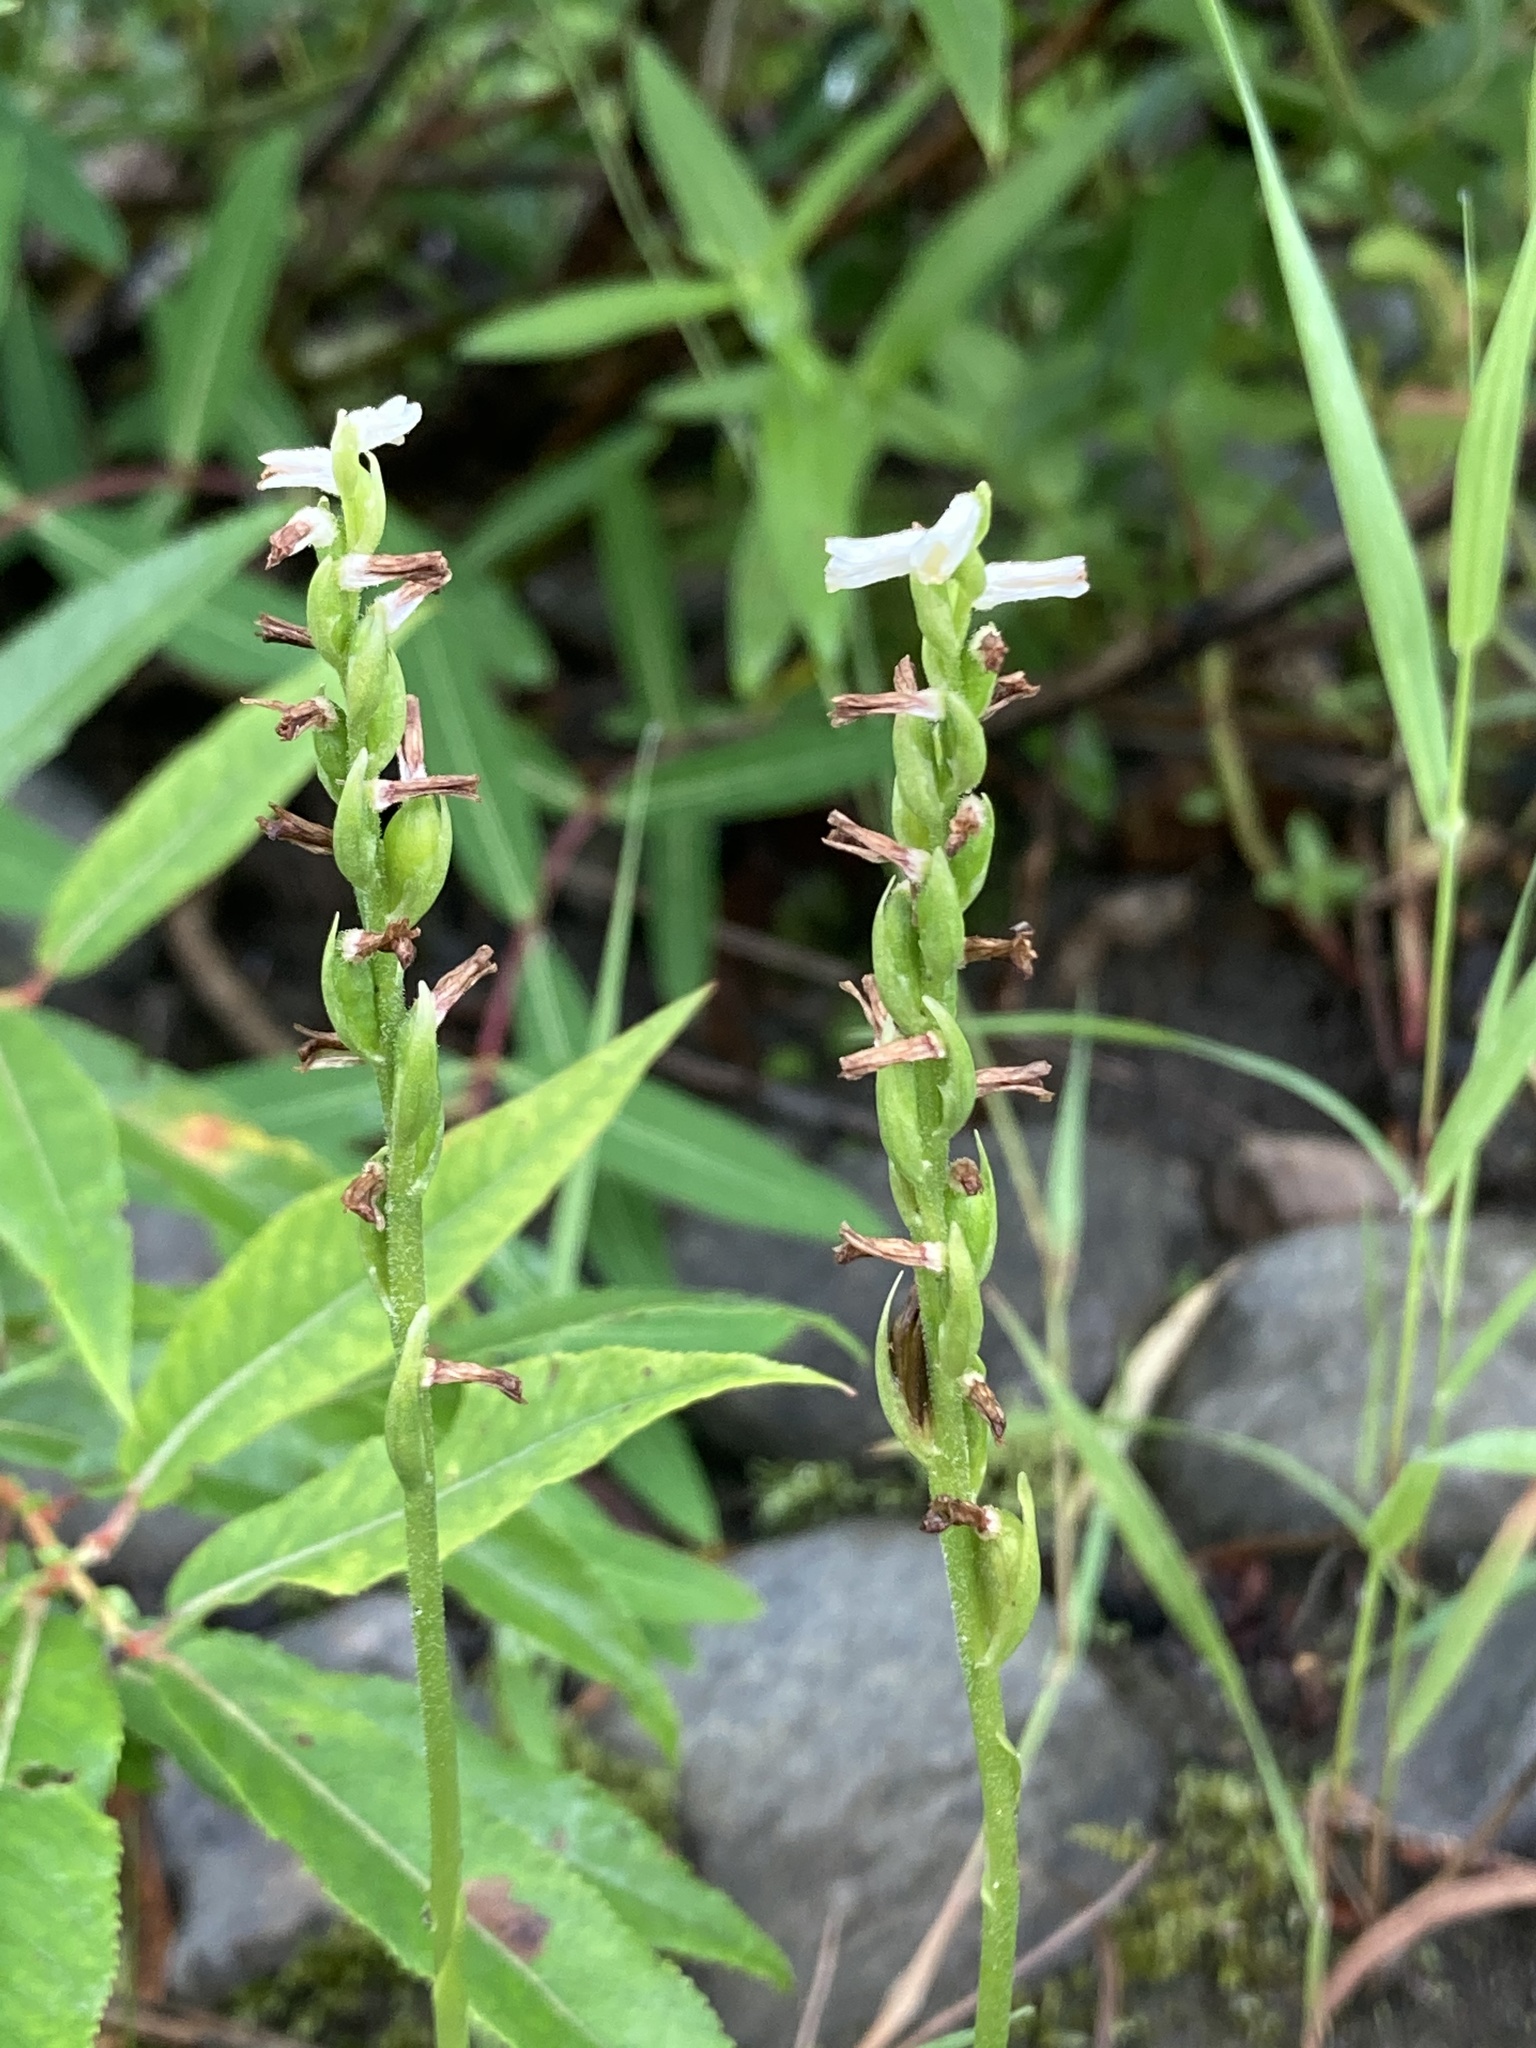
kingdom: Plantae
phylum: Tracheophyta
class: Liliopsida
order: Asparagales
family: Orchidaceae
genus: Spiranthes
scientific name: Spiranthes lucida
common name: Broad-leaved ladies'-tresses
